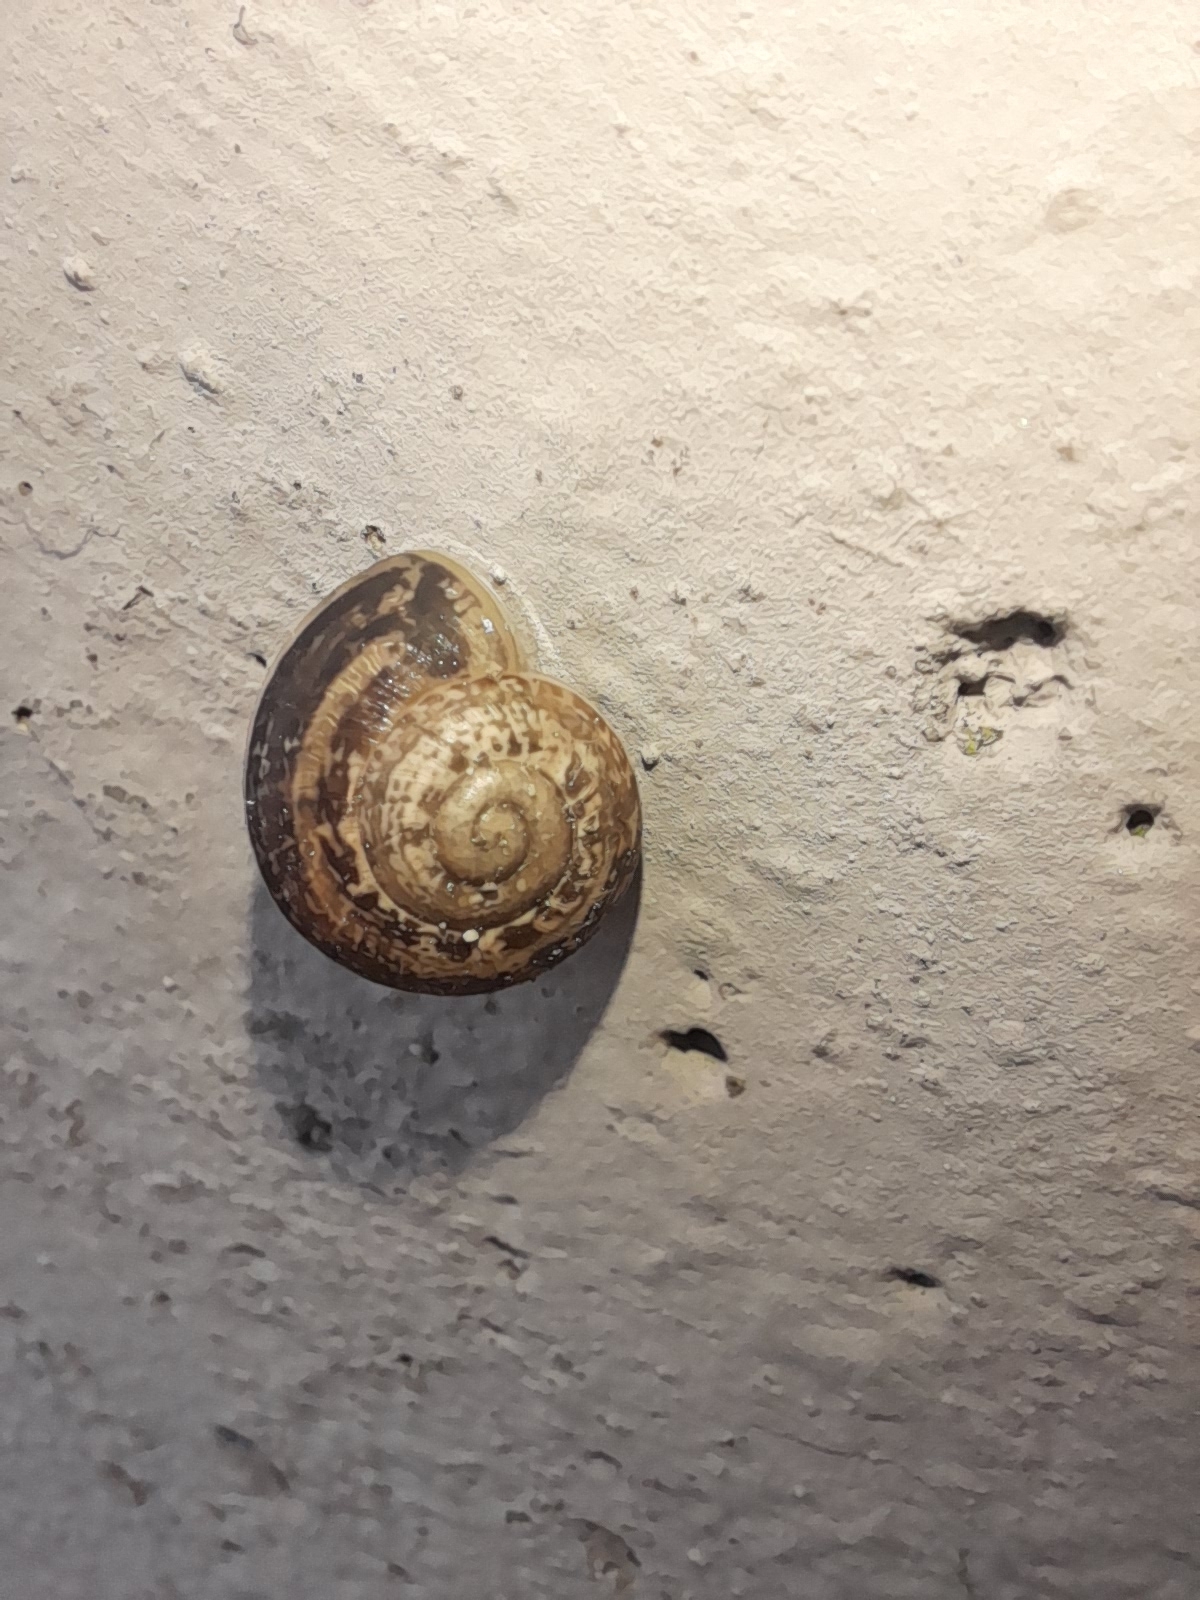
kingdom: Animalia
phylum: Mollusca
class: Gastropoda
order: Stylommatophora
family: Helicidae
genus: Eobania
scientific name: Eobania vermiculata
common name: Chocolateband snail
